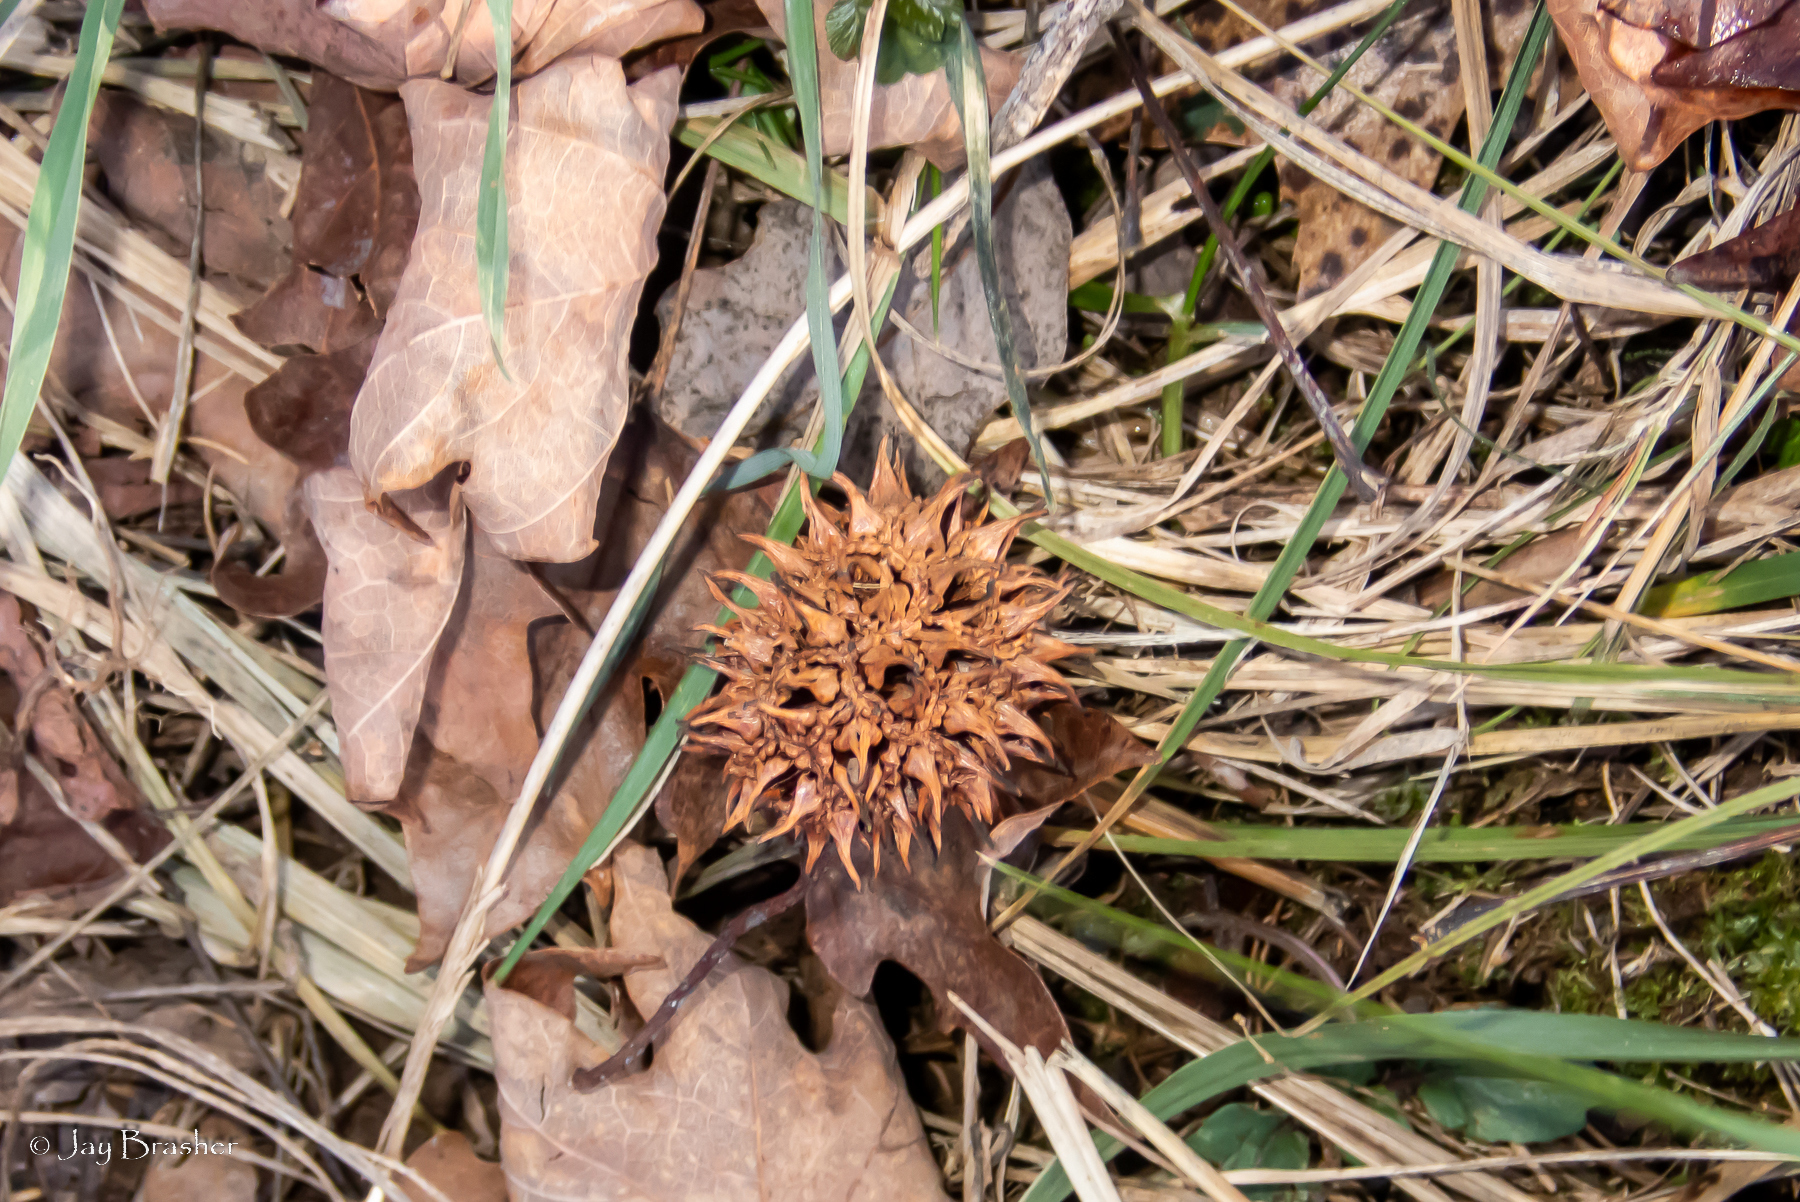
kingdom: Plantae
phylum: Tracheophyta
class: Magnoliopsida
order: Saxifragales
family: Altingiaceae
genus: Liquidambar
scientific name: Liquidambar styraciflua
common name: Sweet gum
